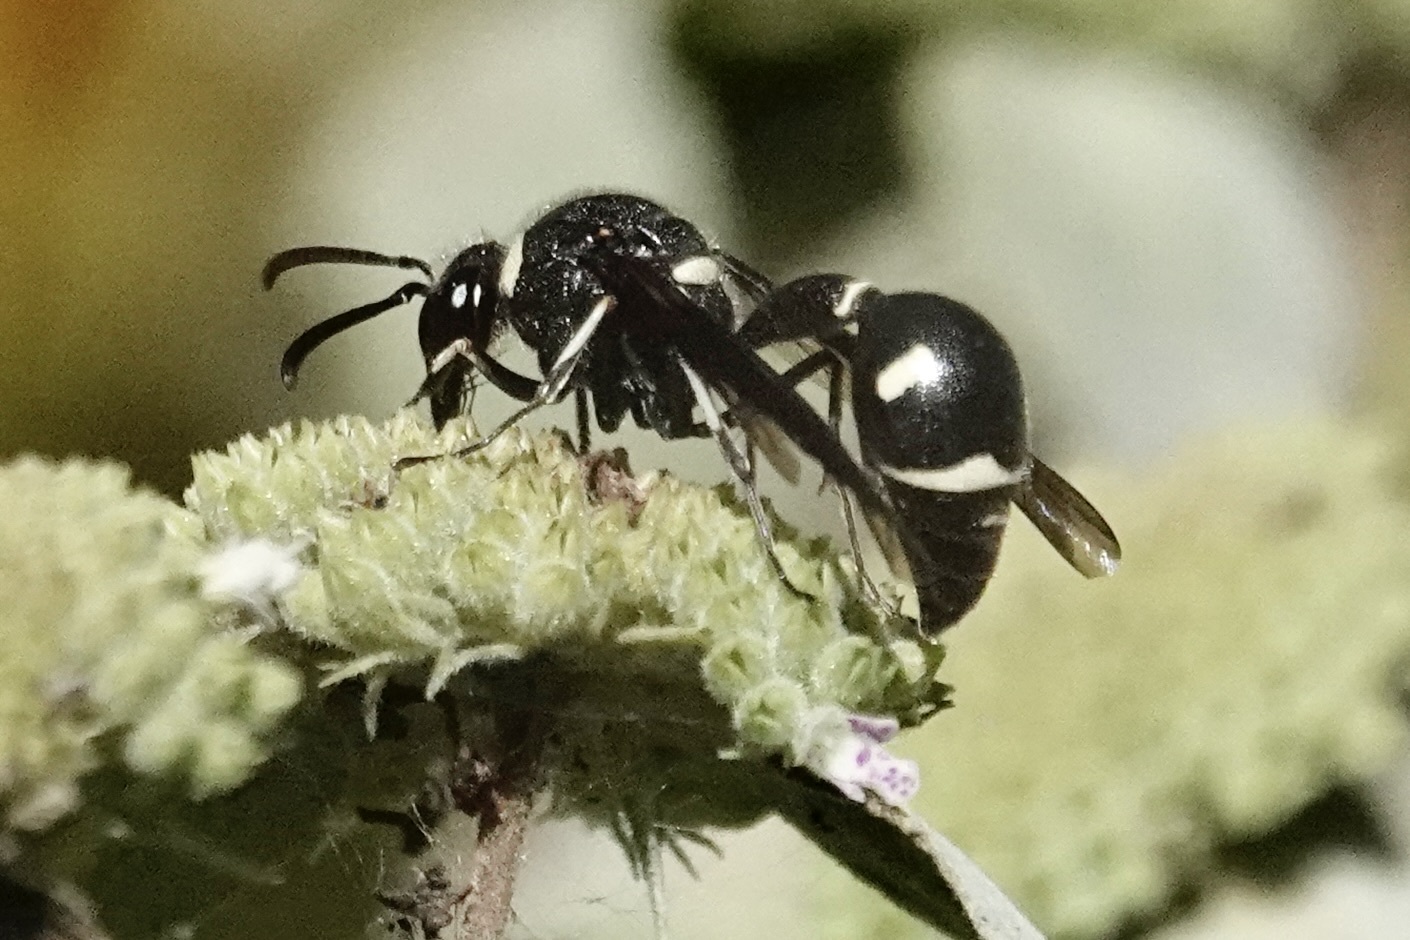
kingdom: Animalia
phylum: Arthropoda
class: Insecta
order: Hymenoptera
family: Vespidae
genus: Eumenes
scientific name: Eumenes fraternus
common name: Fraternal potter wasp
